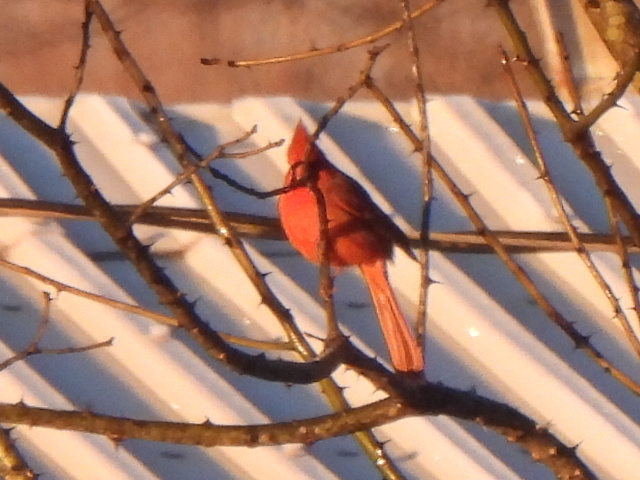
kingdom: Animalia
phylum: Chordata
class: Aves
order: Passeriformes
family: Cardinalidae
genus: Cardinalis
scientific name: Cardinalis cardinalis
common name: Northern cardinal
